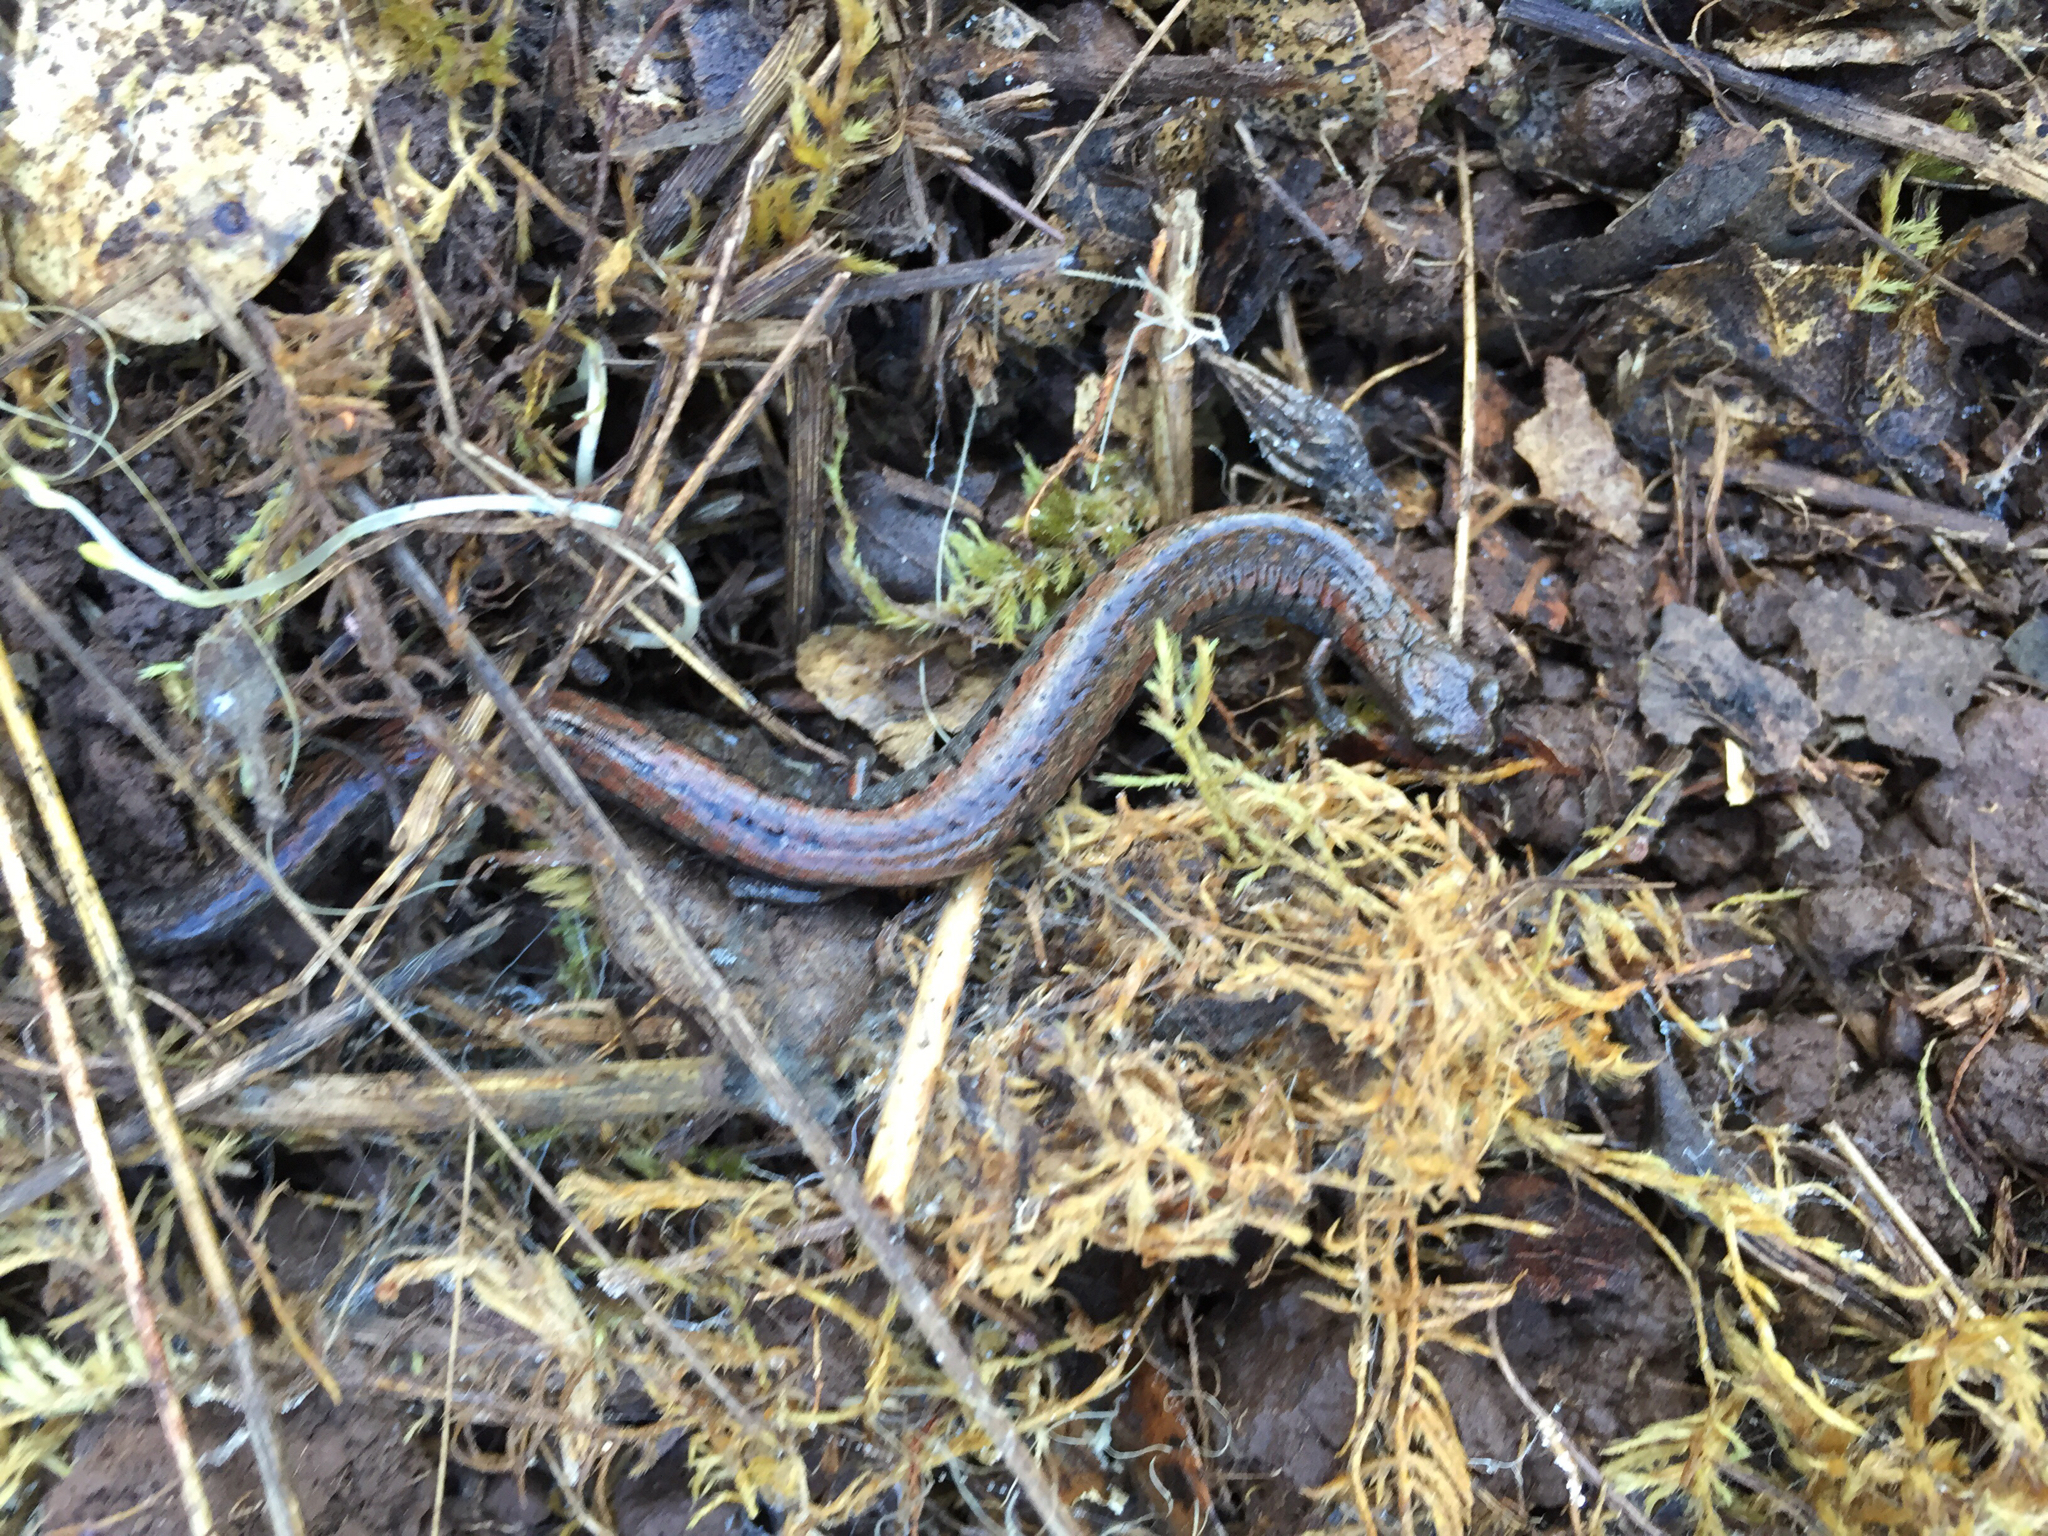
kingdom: Animalia
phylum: Chordata
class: Amphibia
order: Caudata
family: Plethodontidae
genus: Batrachoseps
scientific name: Batrachoseps attenuatus
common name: California slender salamander
